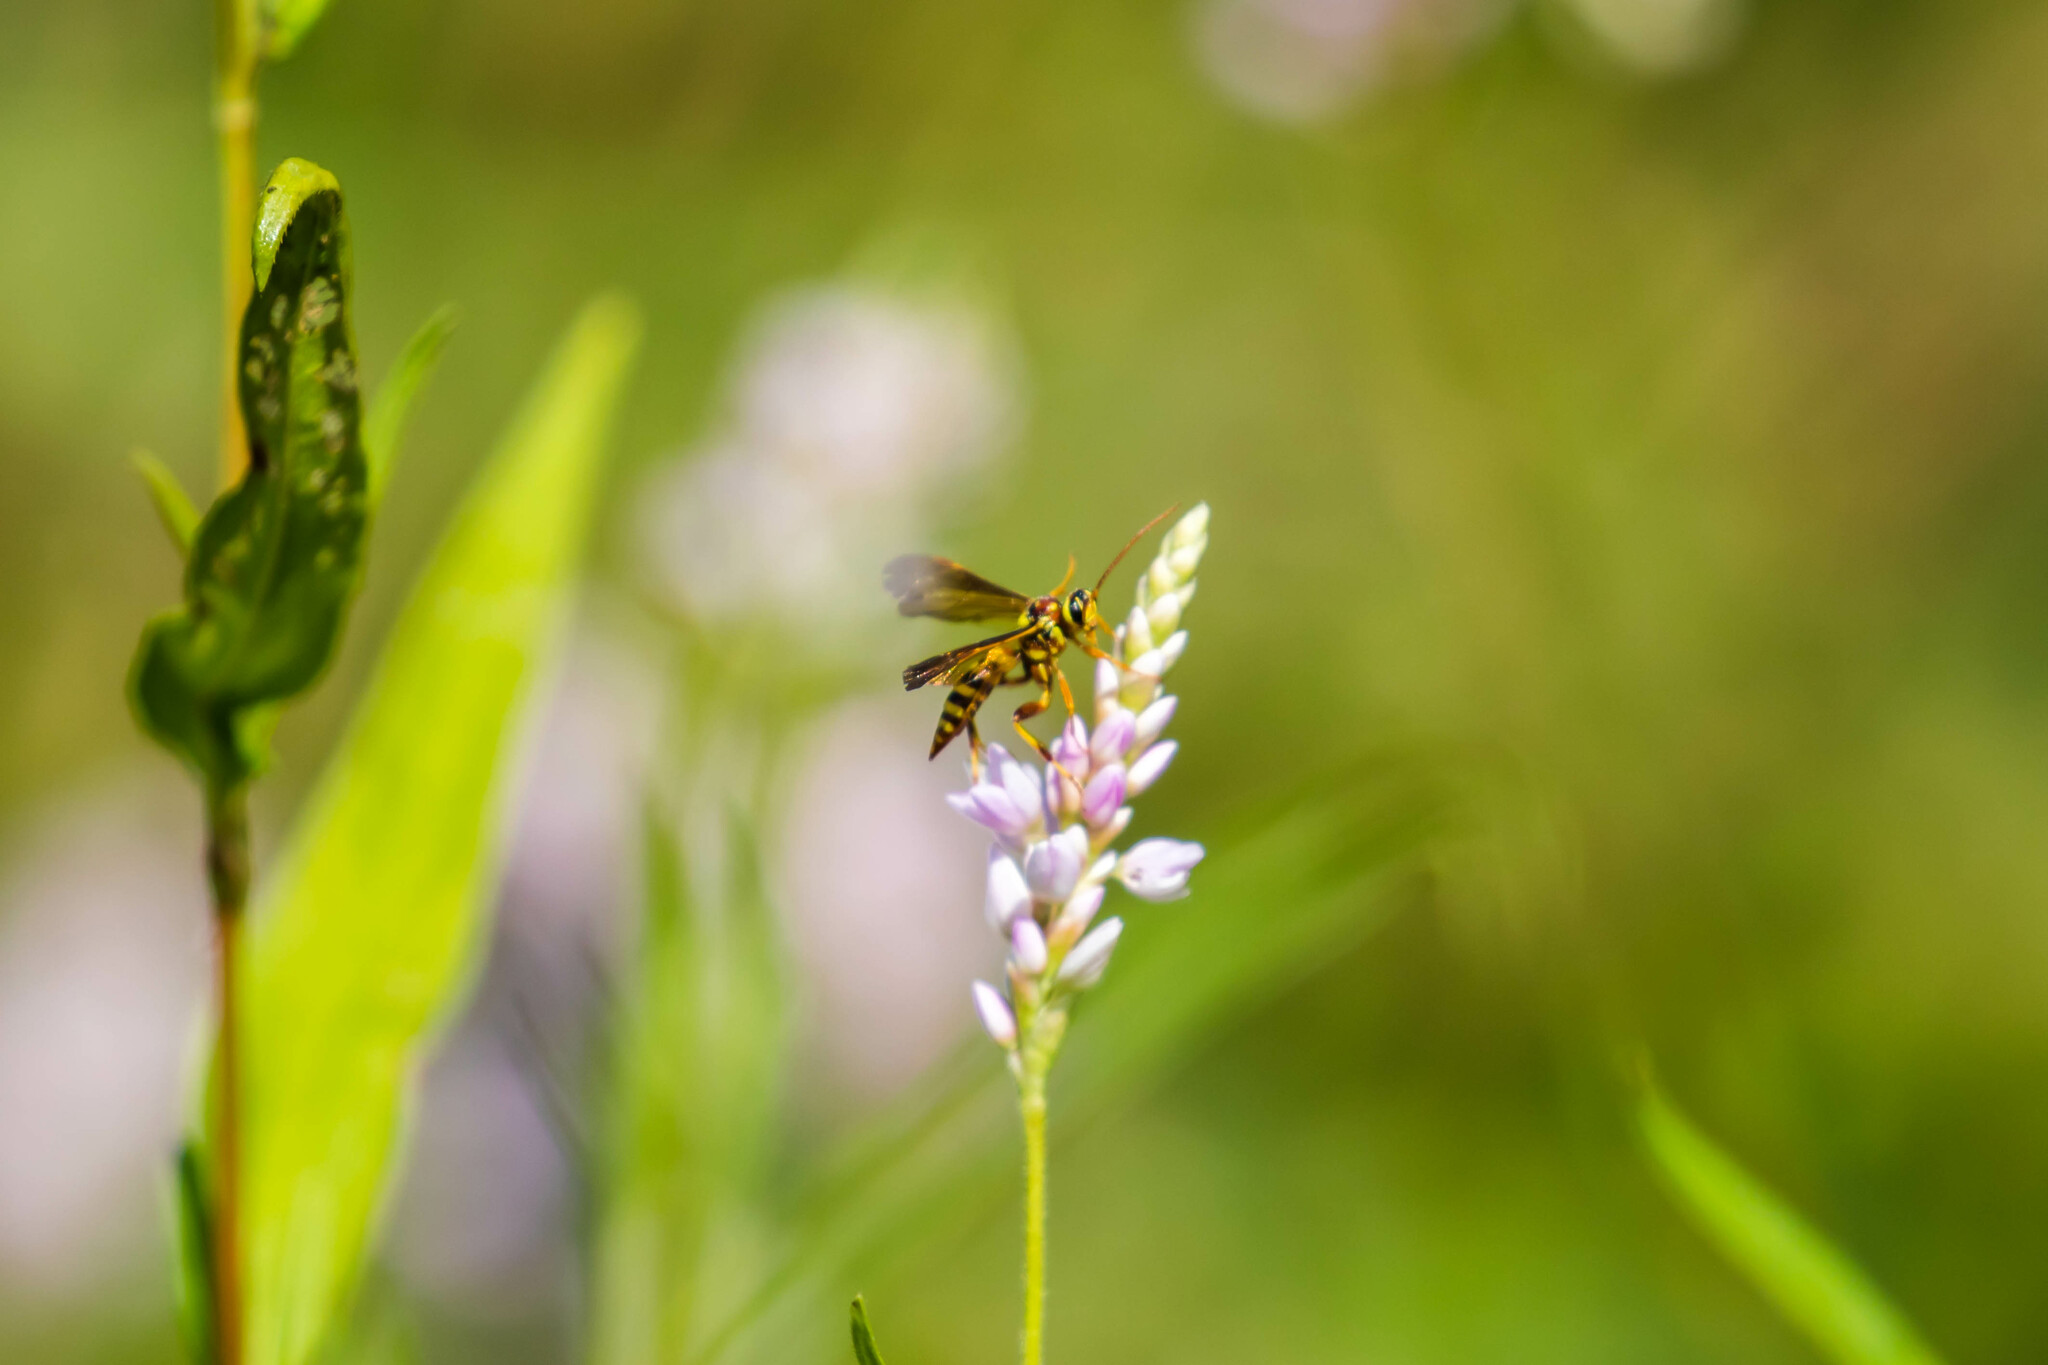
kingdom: Animalia
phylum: Arthropoda
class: Insecta
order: Hymenoptera
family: Ichneumonidae
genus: Ceratogastra
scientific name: Ceratogastra ornata
